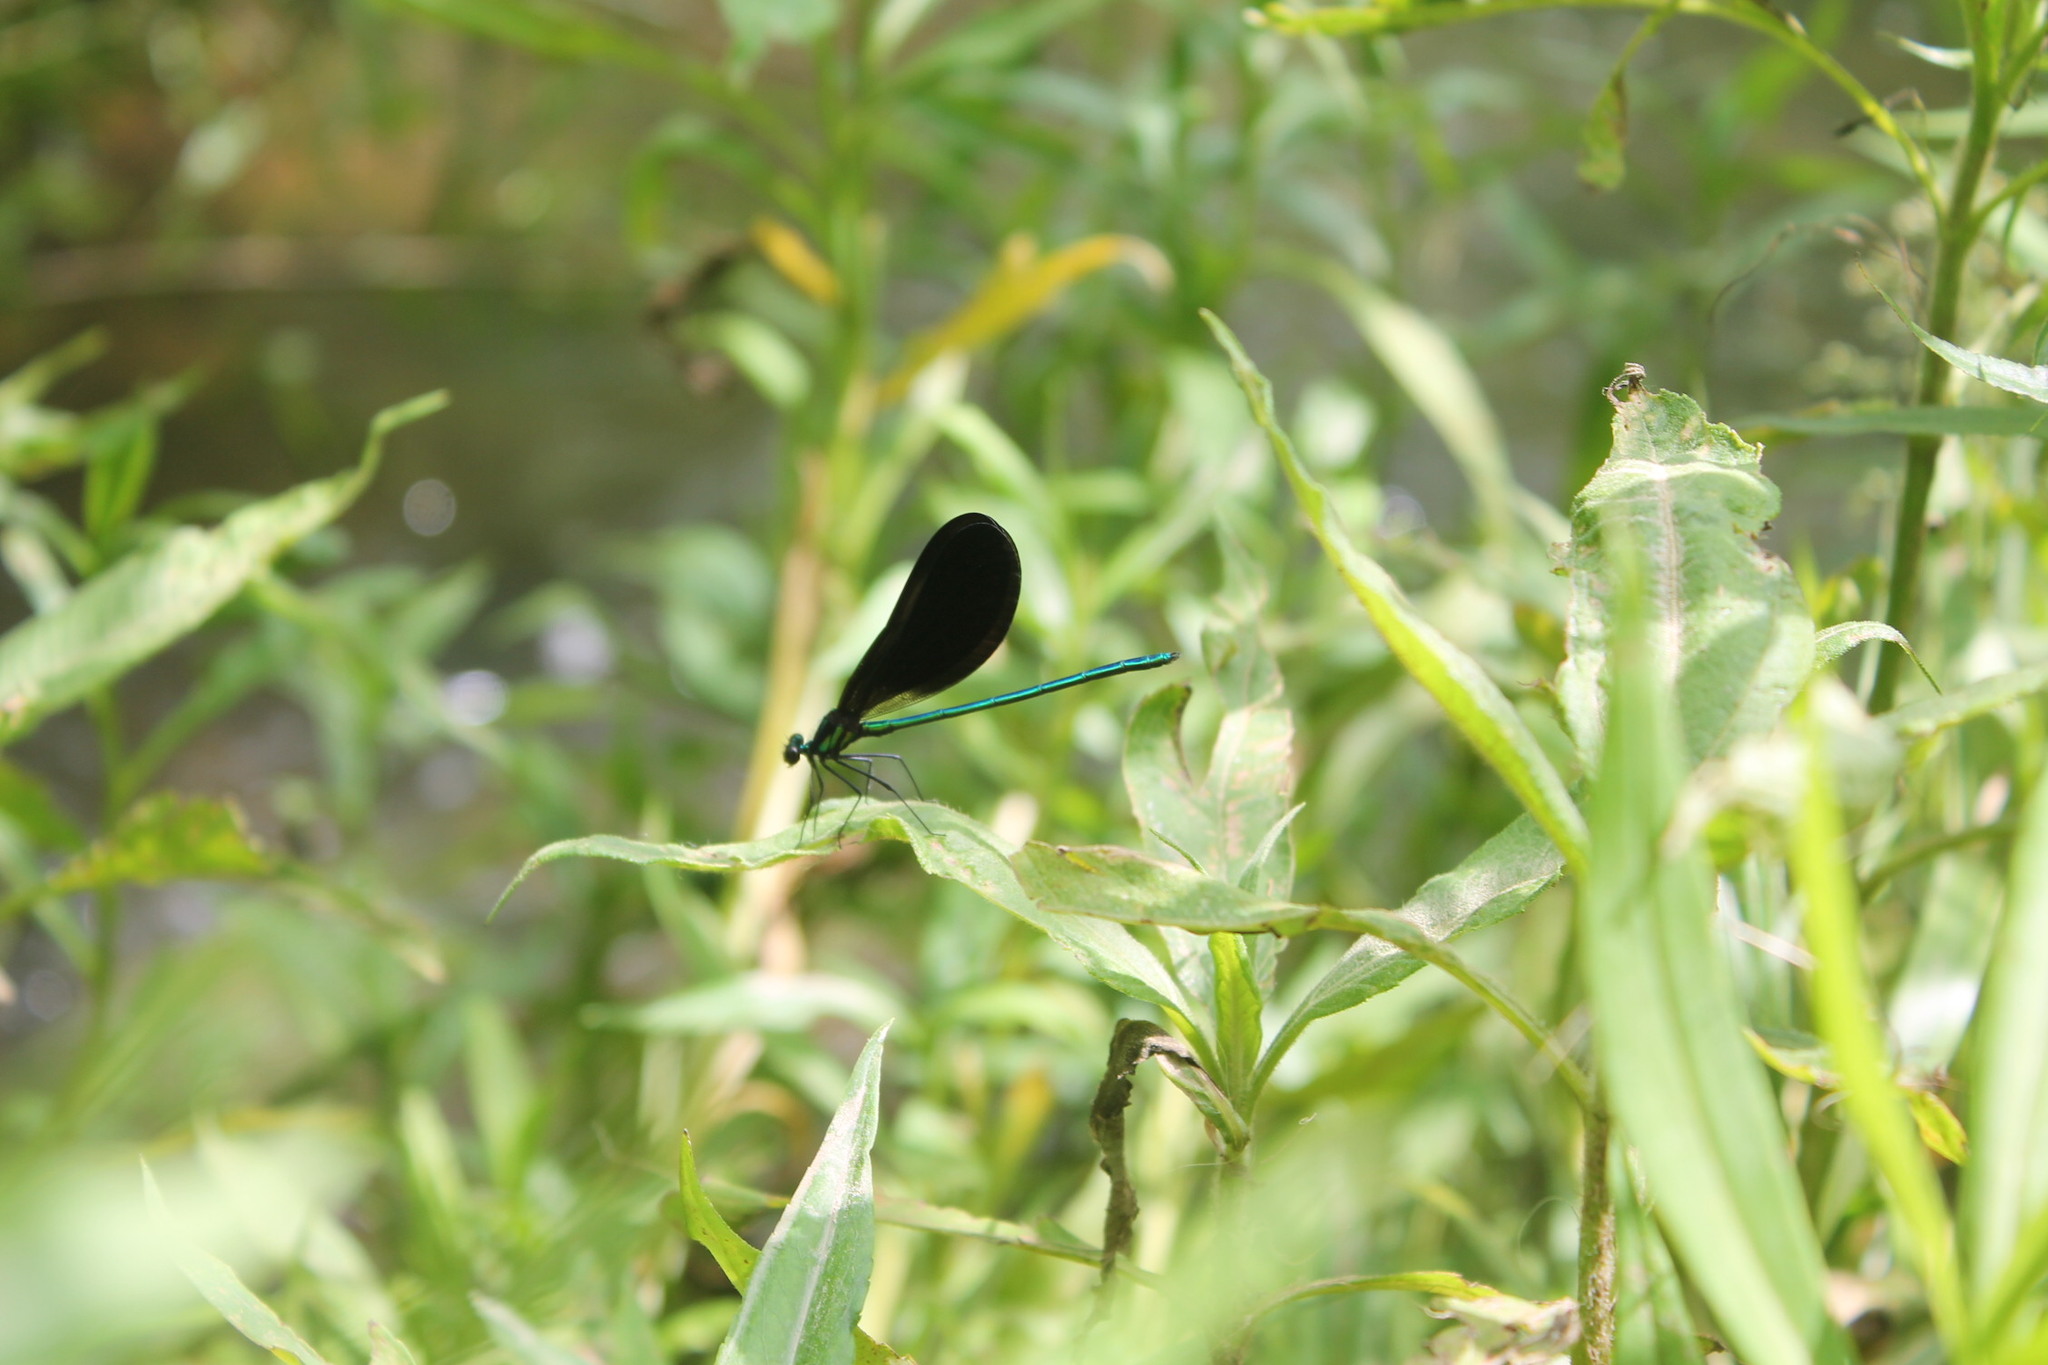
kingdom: Animalia
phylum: Arthropoda
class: Insecta
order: Odonata
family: Calopterygidae
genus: Calopteryx
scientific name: Calopteryx maculata
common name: Ebony jewelwing
